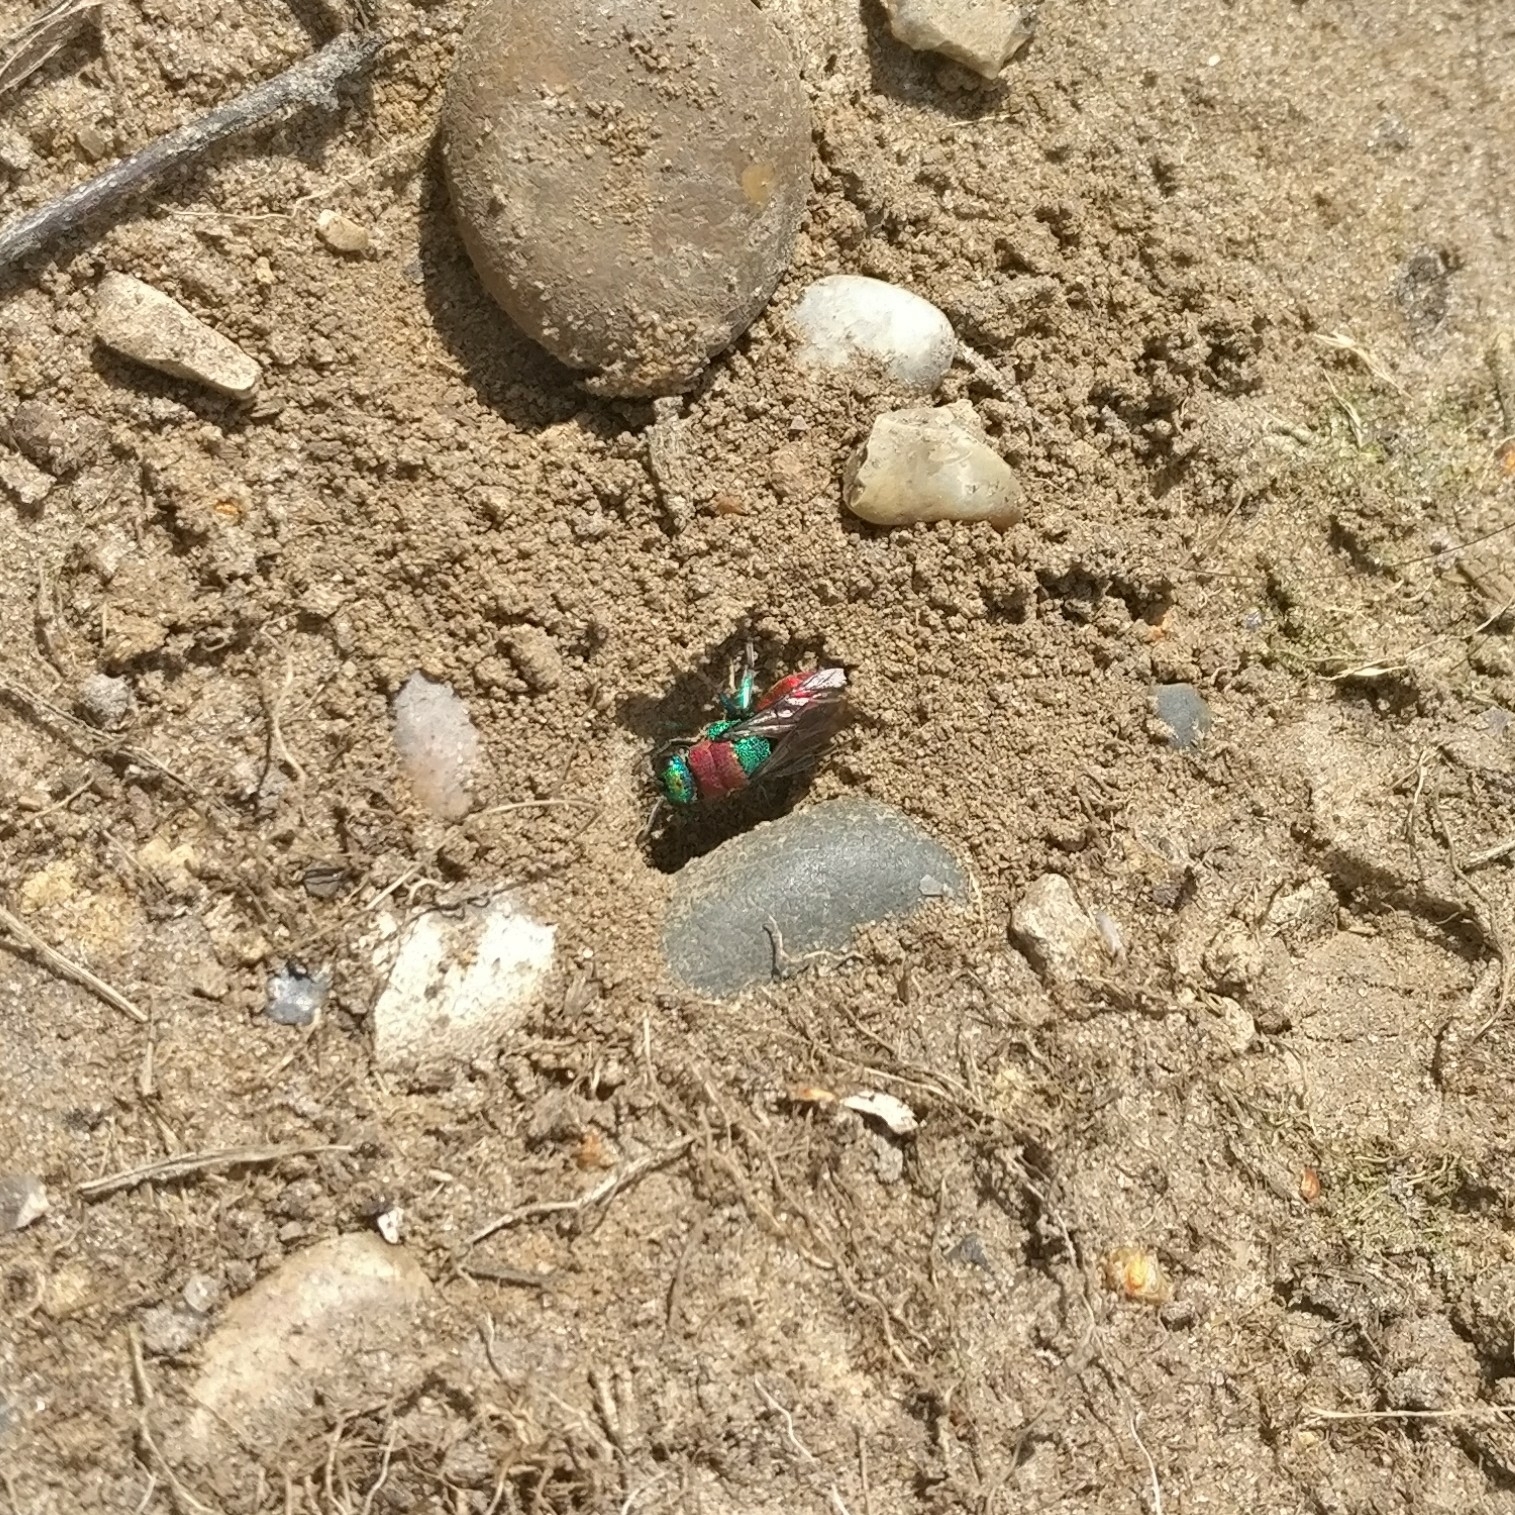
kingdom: Animalia
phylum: Arthropoda
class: Insecta
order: Hymenoptera
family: Chrysididae
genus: Hedychrum
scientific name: Hedychrum
